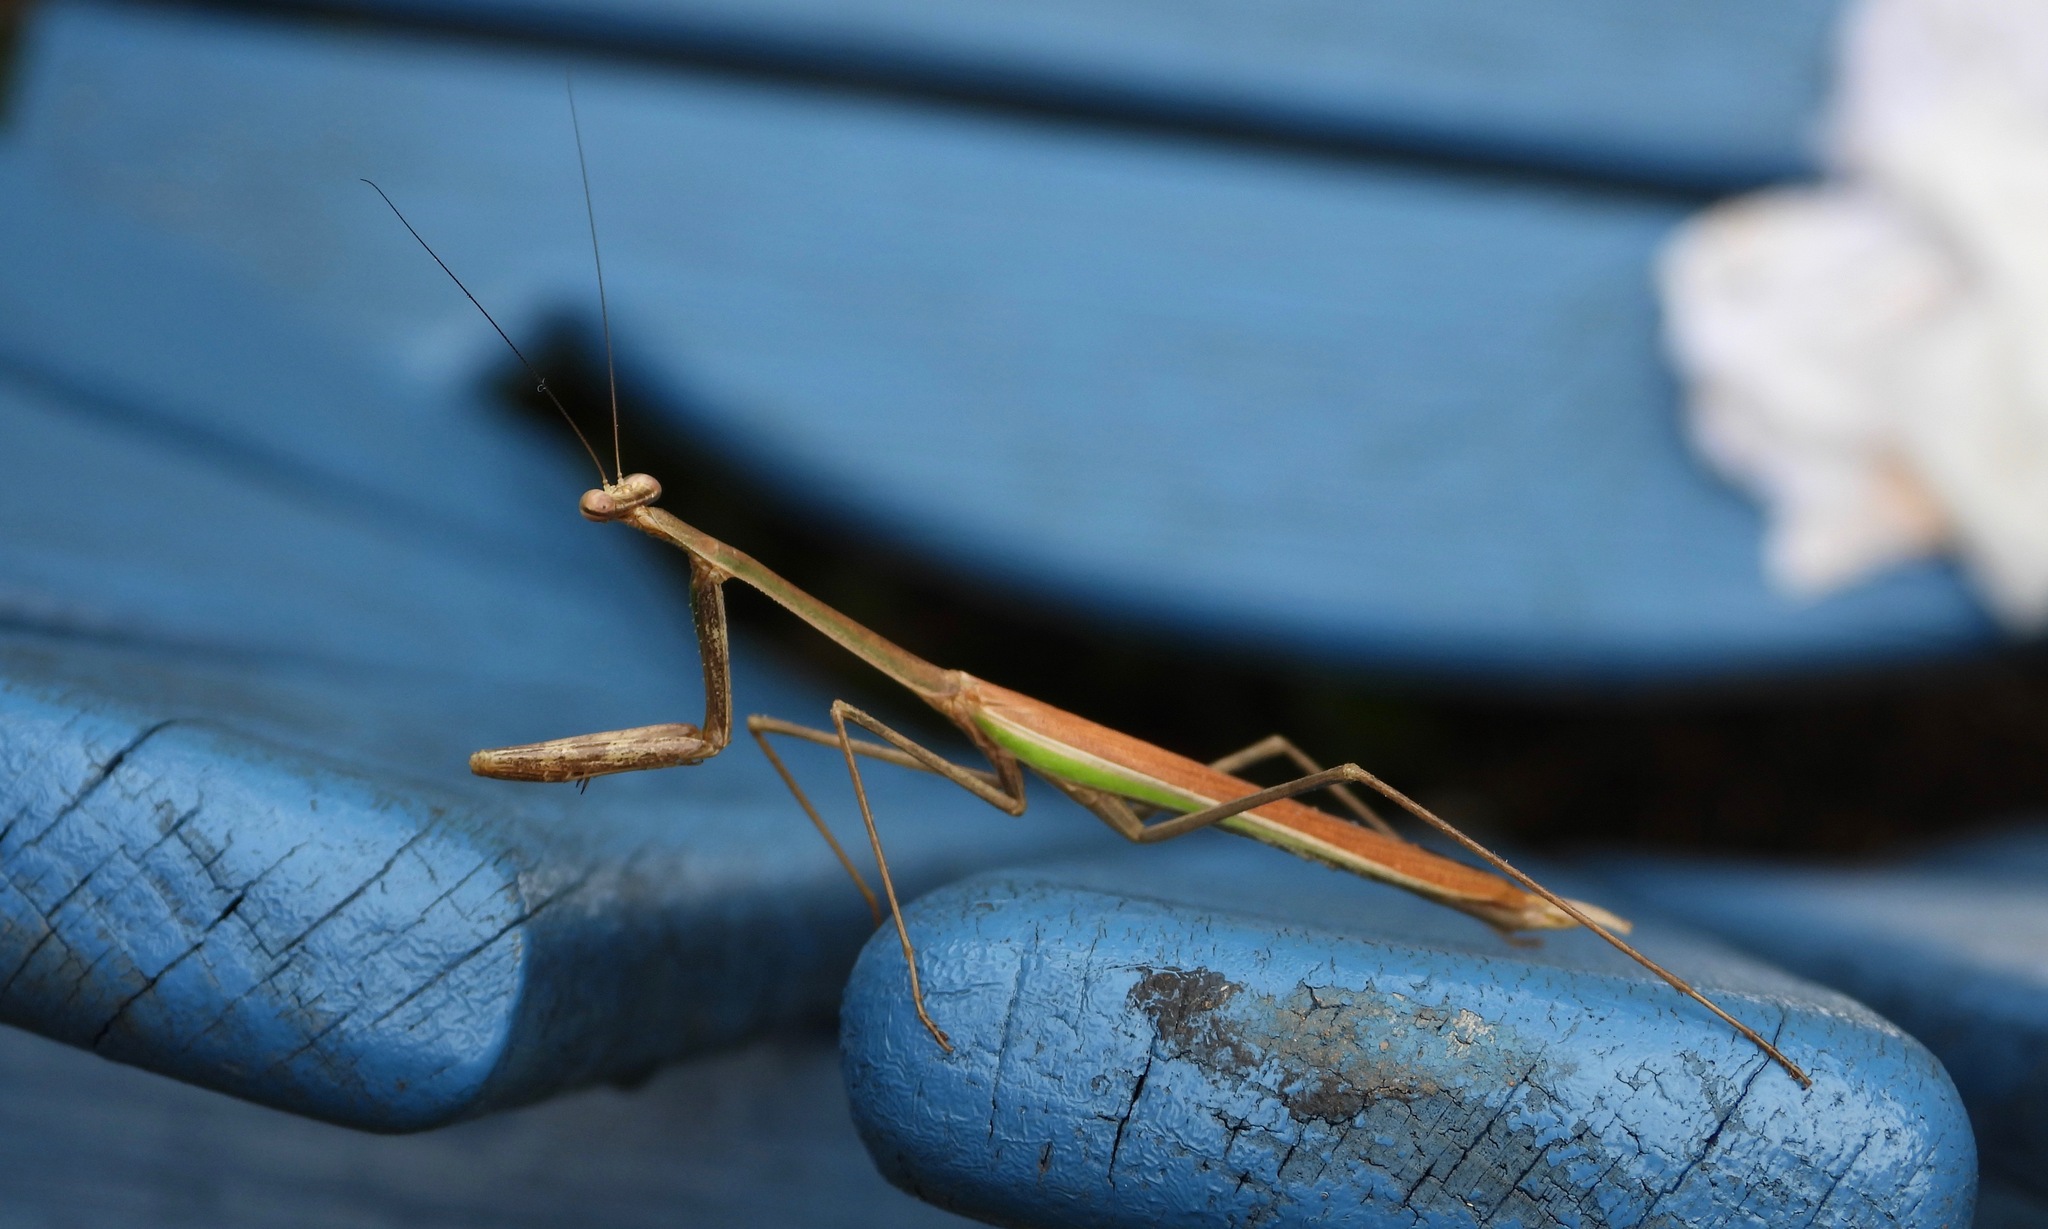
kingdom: Animalia
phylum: Arthropoda
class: Insecta
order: Mantodea
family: Mantidae
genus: Phasmomantis
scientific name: Phasmomantis sumichrasti
